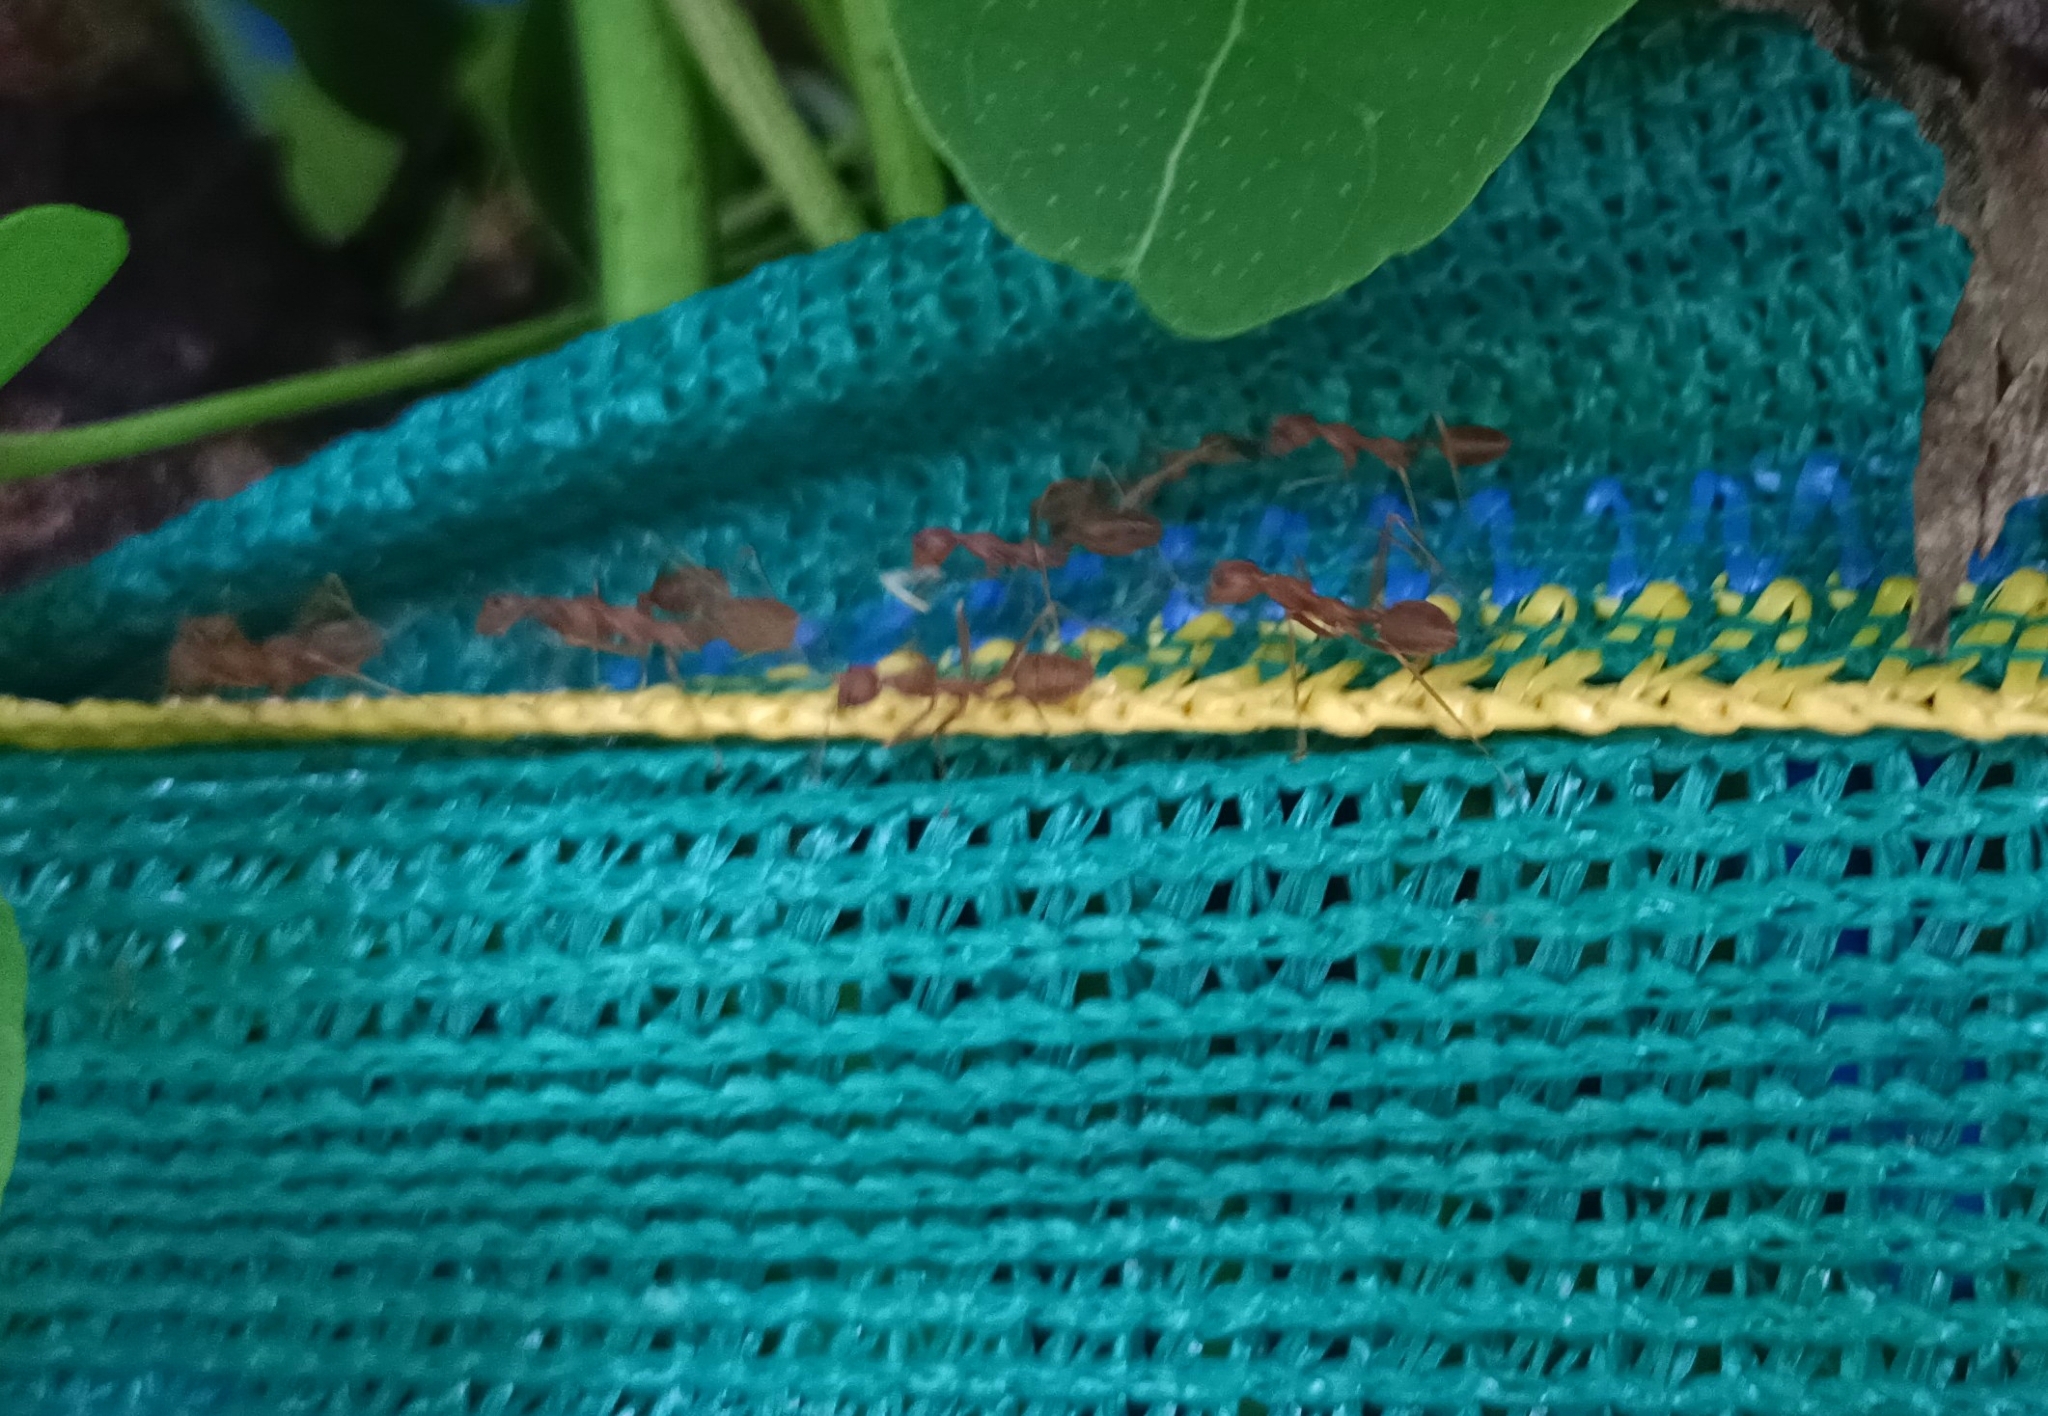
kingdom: Animalia
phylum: Arthropoda
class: Insecta
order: Hymenoptera
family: Formicidae
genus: Oecophylla
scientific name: Oecophylla smaragdina
